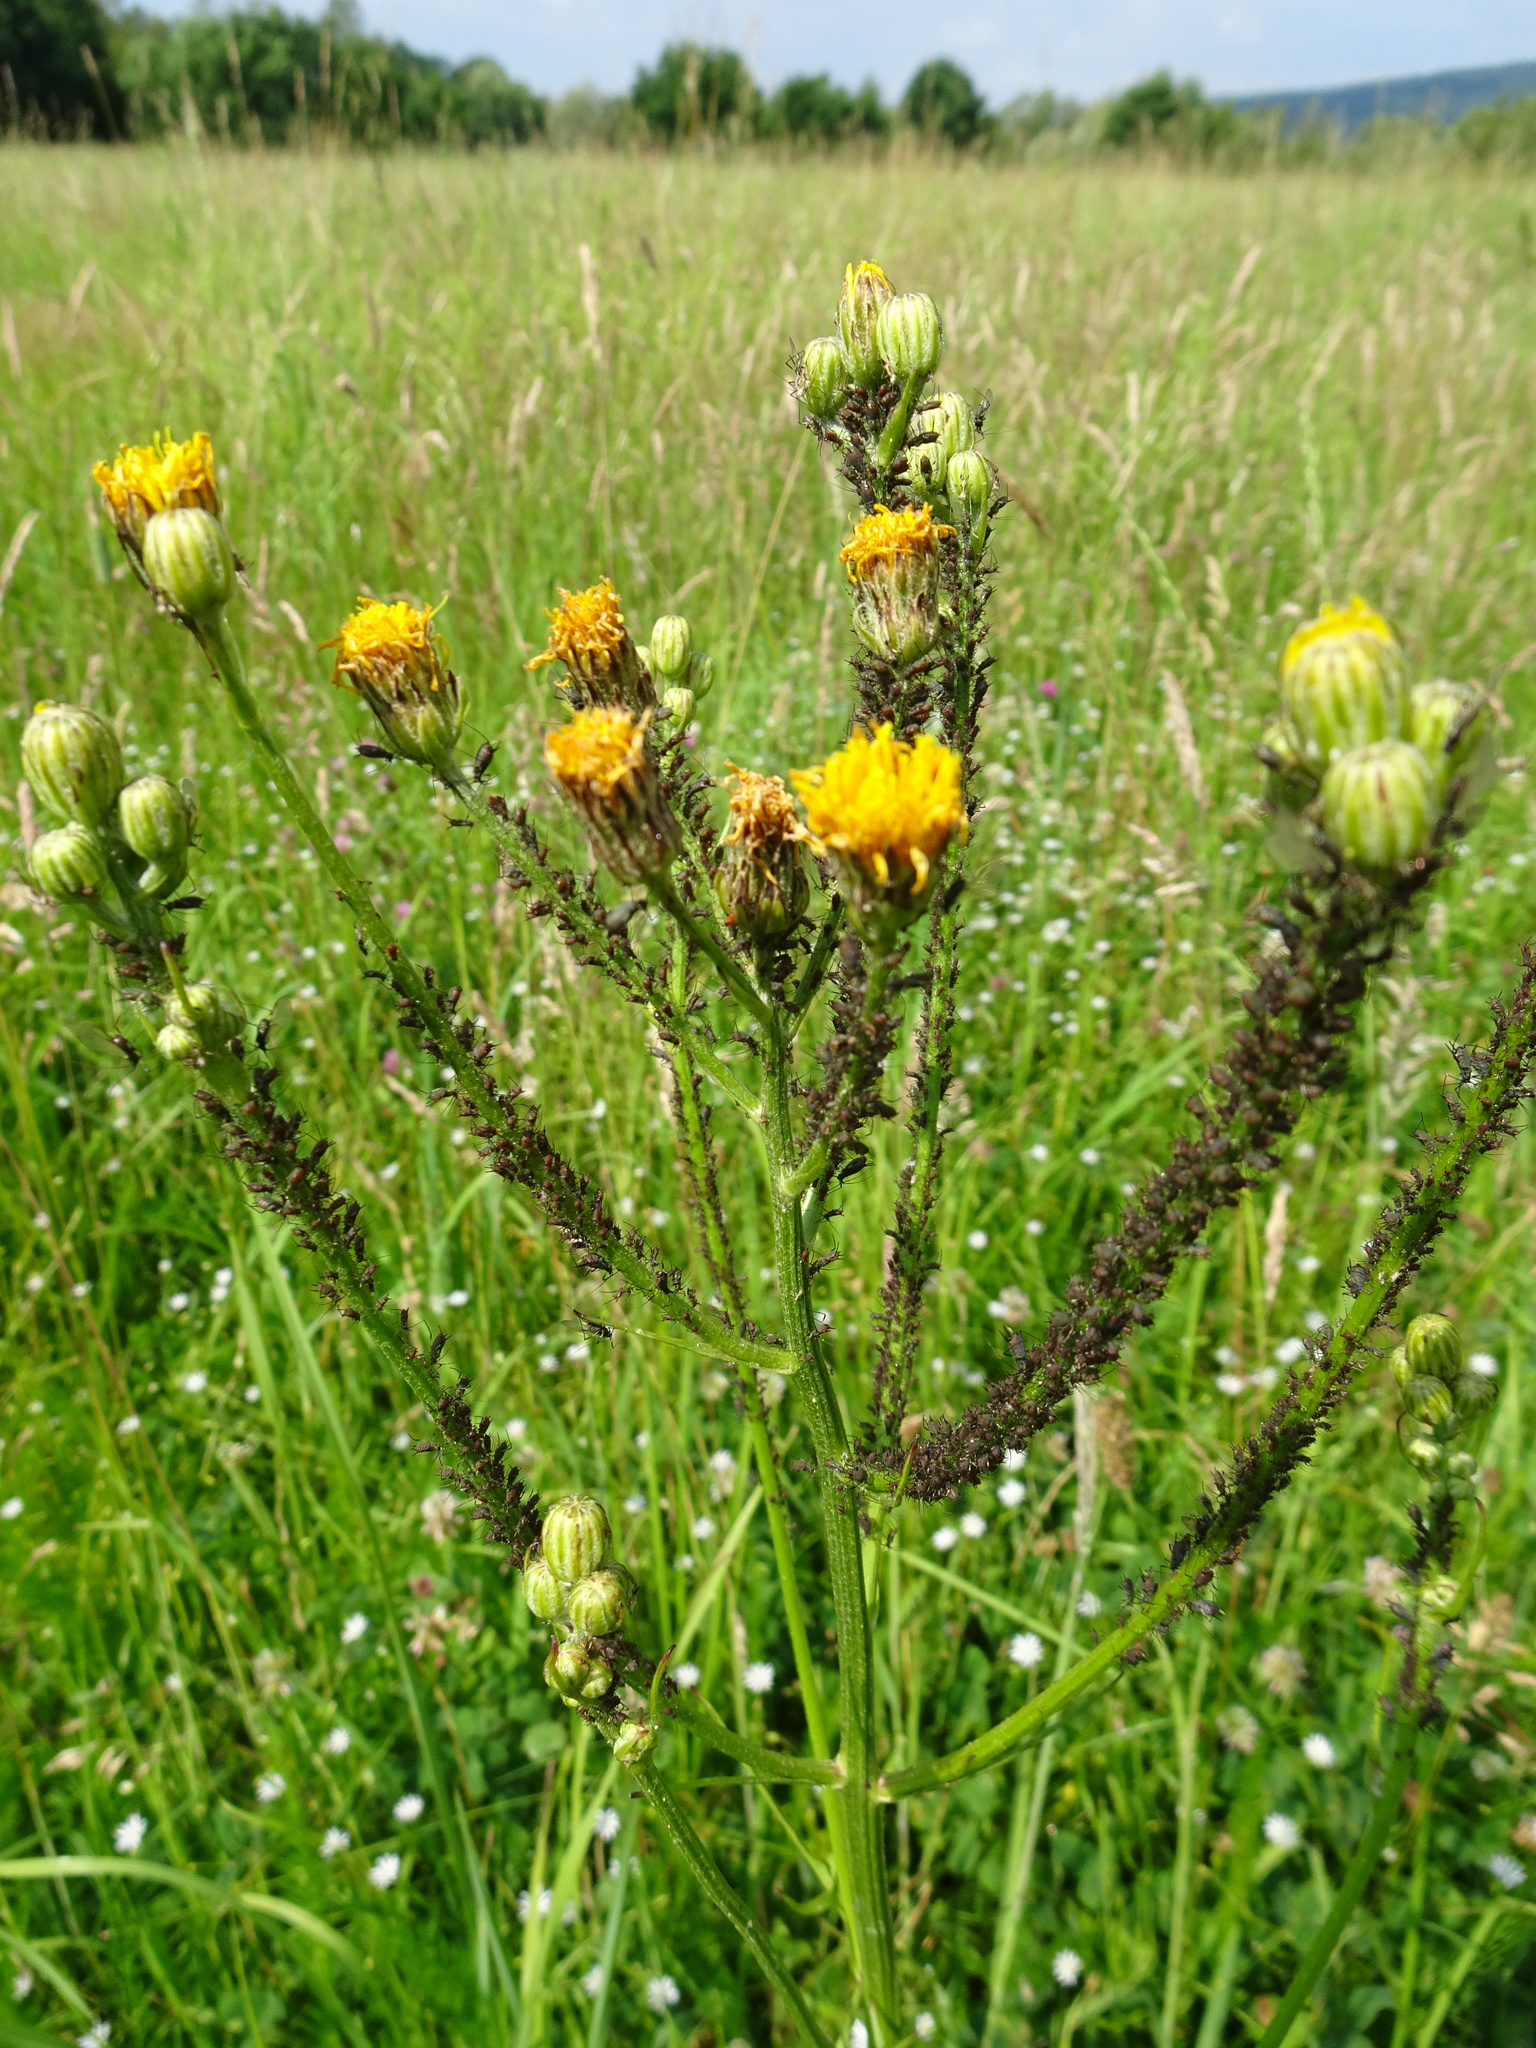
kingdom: Plantae
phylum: Tracheophyta
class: Magnoliopsida
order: Asterales
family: Asteraceae
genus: Crepis
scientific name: Crepis biennis
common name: Rough hawk's-beard
